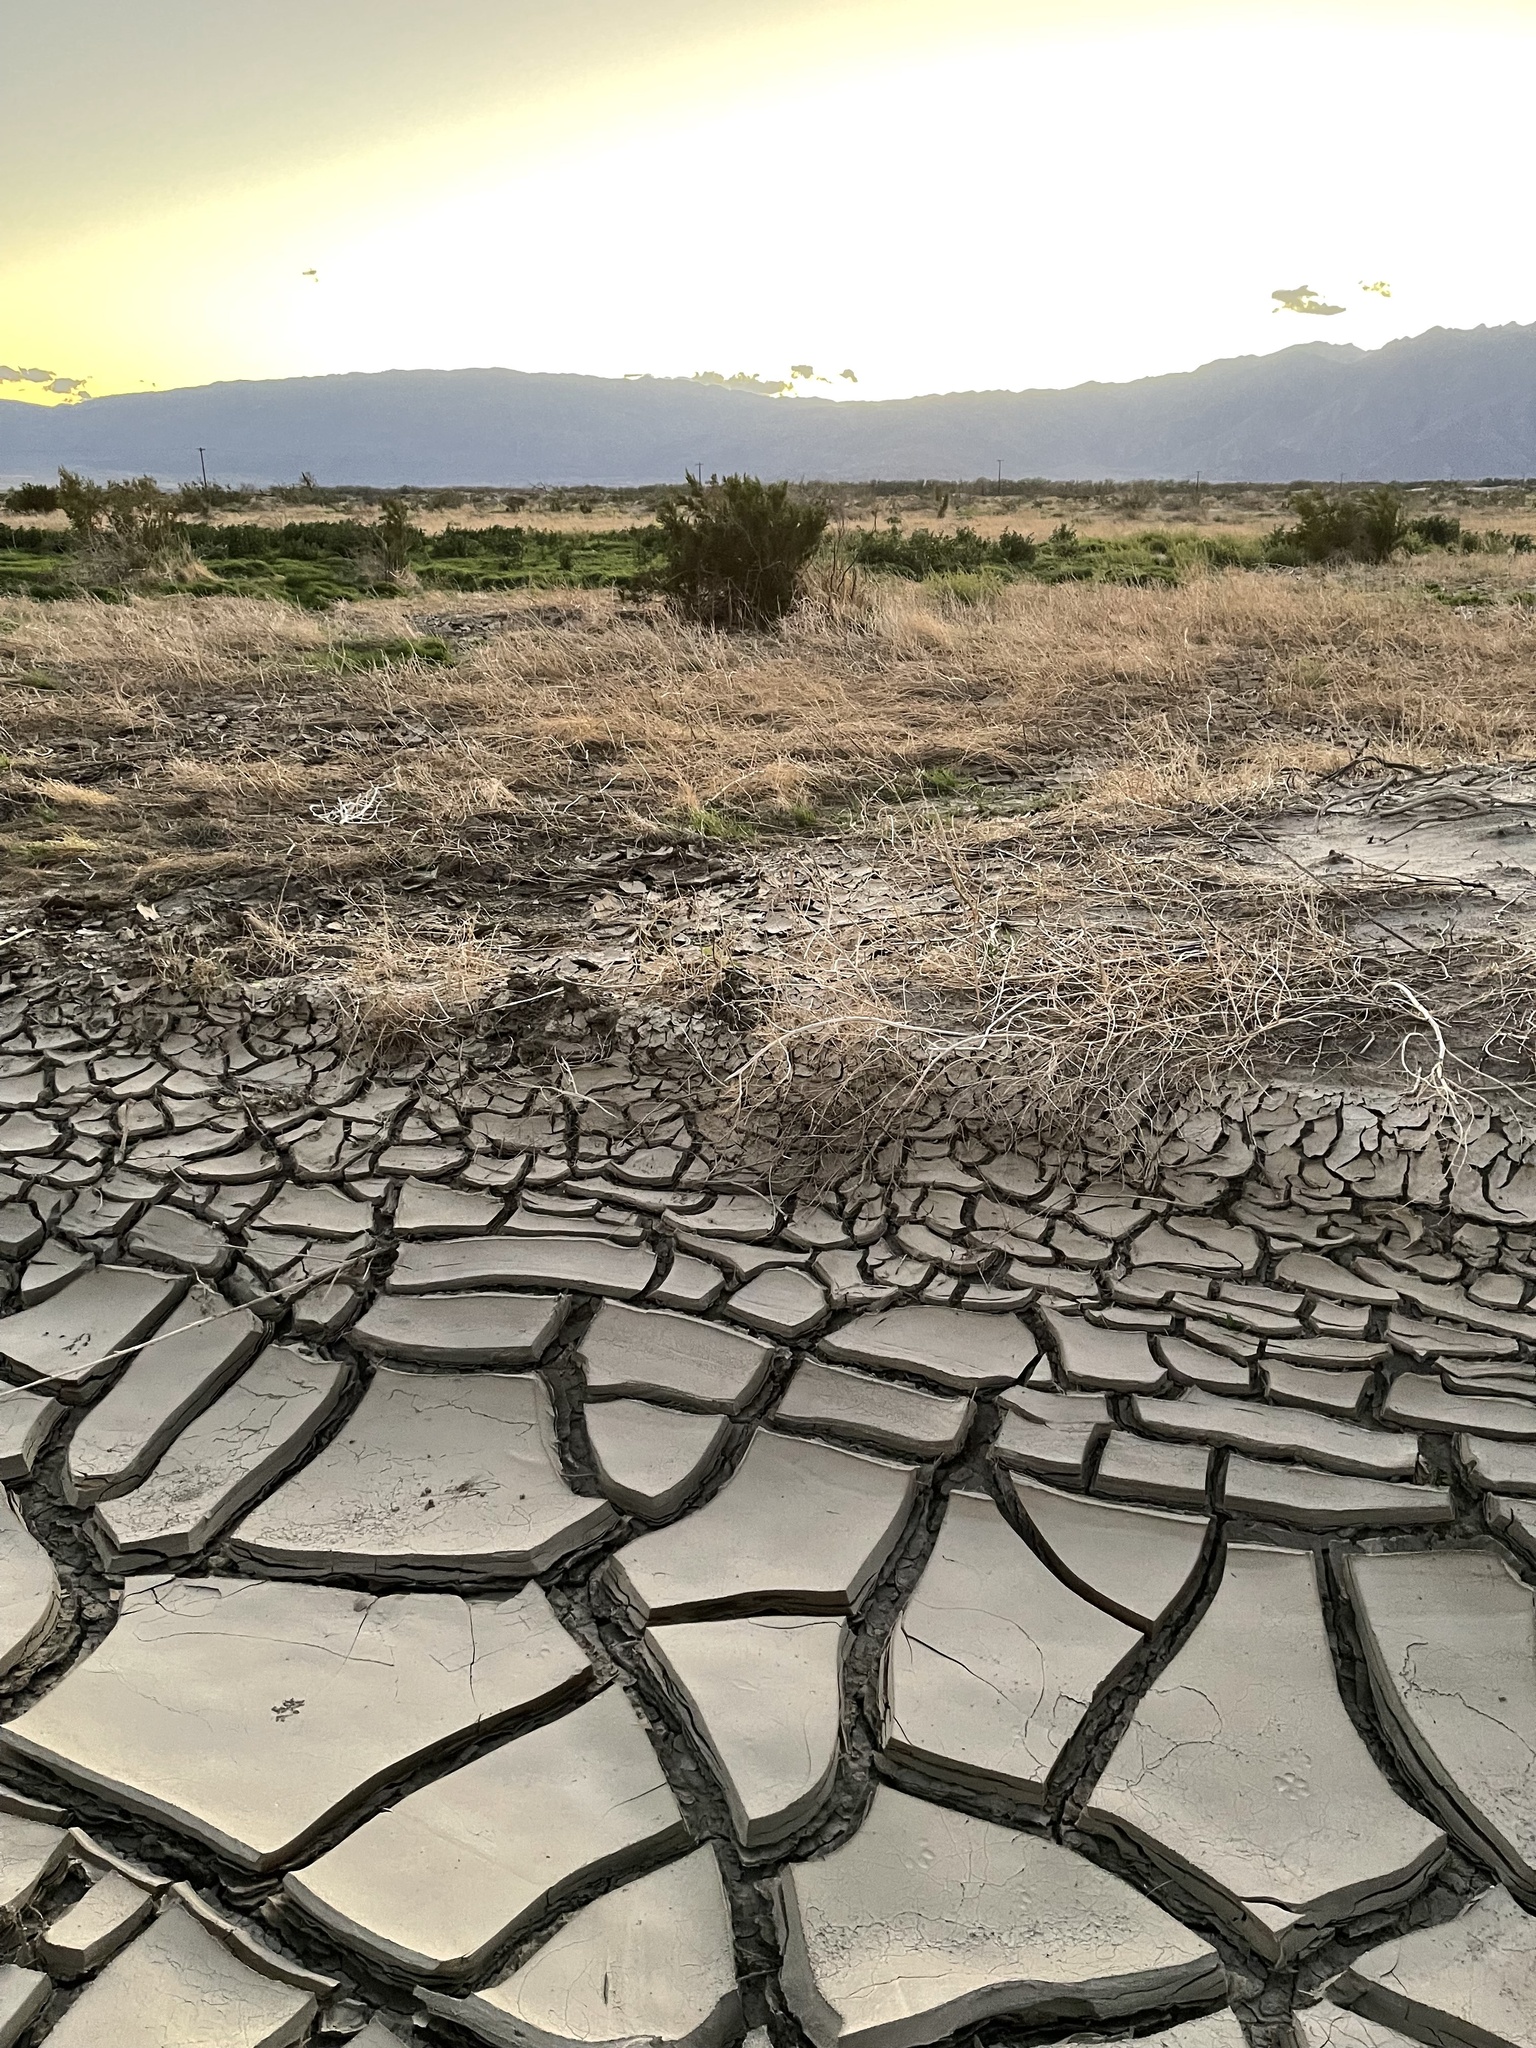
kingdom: Plantae
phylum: Tracheophyta
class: Magnoliopsida
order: Asterales
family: Asteraceae
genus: Volutaria
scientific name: Volutaria tubuliflora
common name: Desert knapweed
